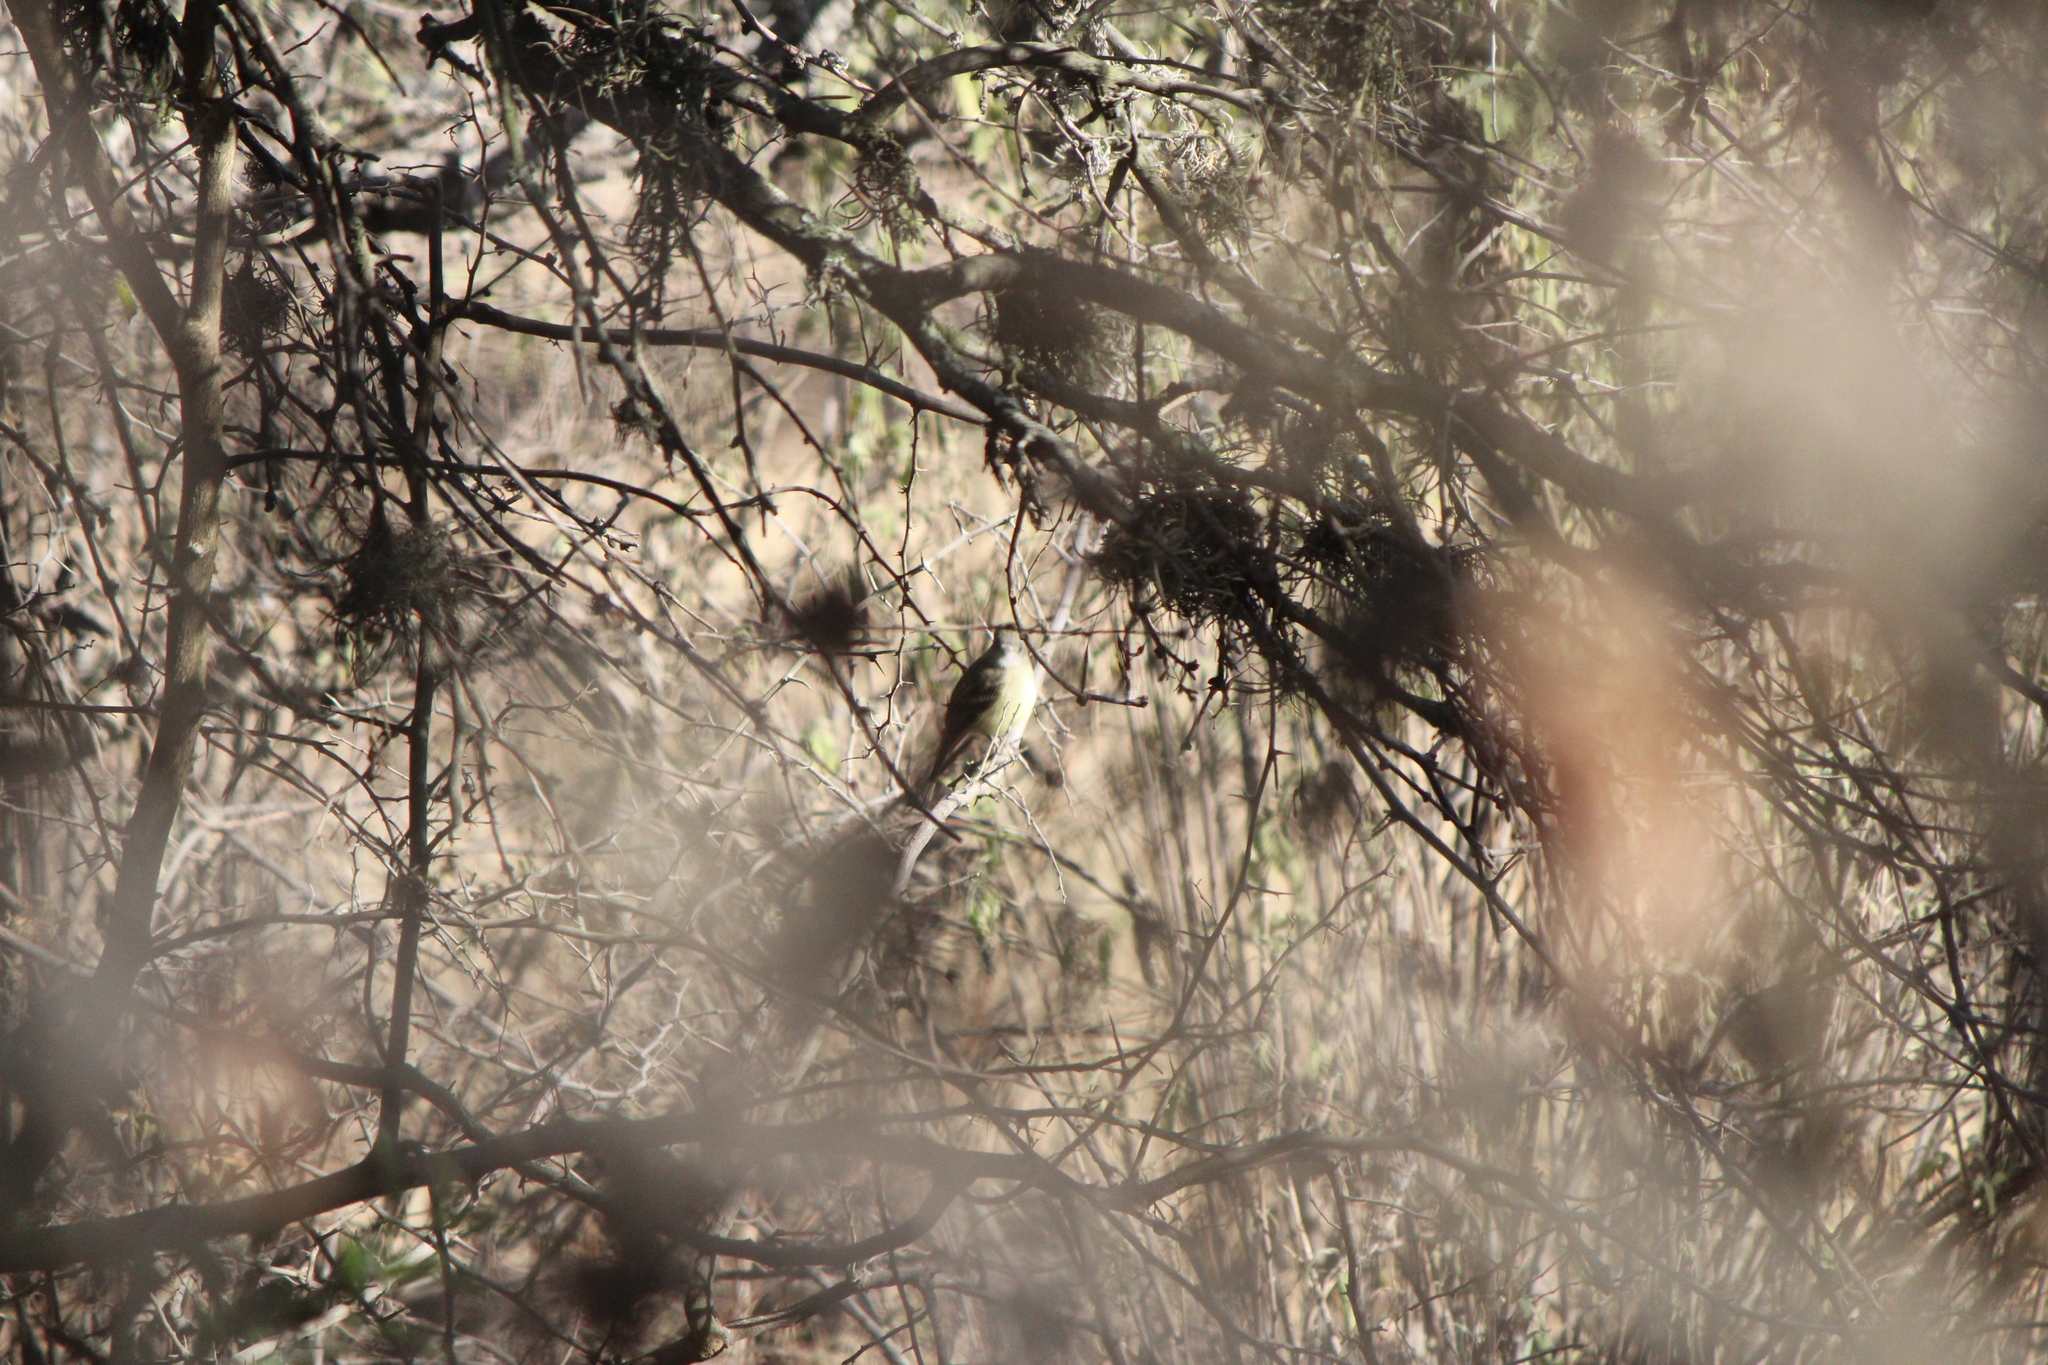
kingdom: Animalia
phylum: Chordata
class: Aves
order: Passeriformes
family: Tyrannidae
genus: Empidonax
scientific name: Empidonax wrightii
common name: Gray flycatcher
